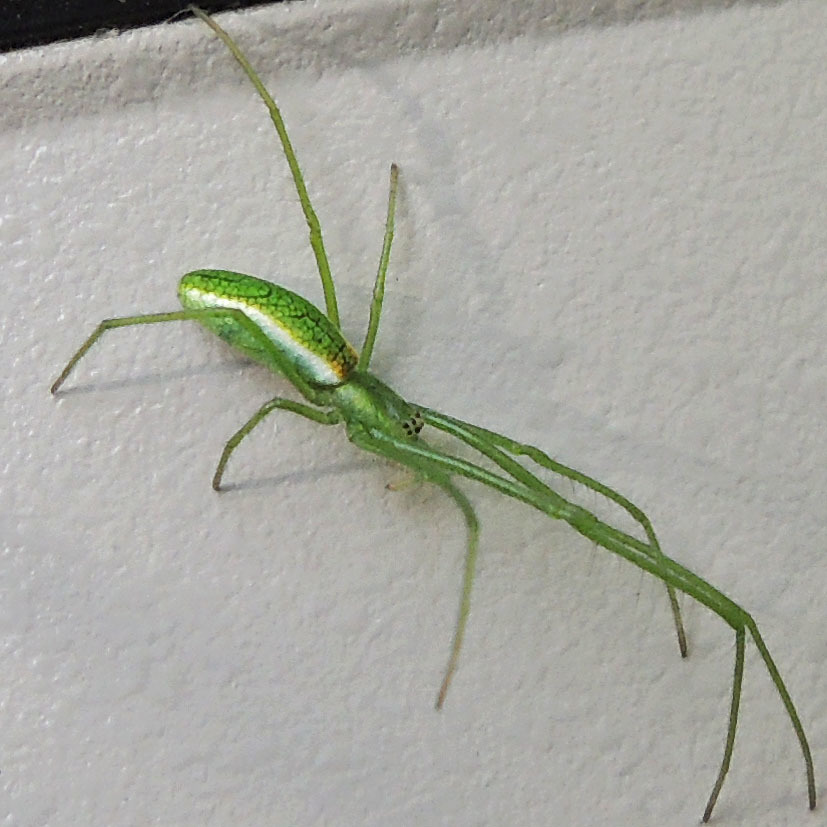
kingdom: Animalia
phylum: Arthropoda
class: Arachnida
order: Araneae
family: Tetragnathidae
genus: Tetragnatha
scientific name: Tetragnatha viridis
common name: Green long-jawed spider
